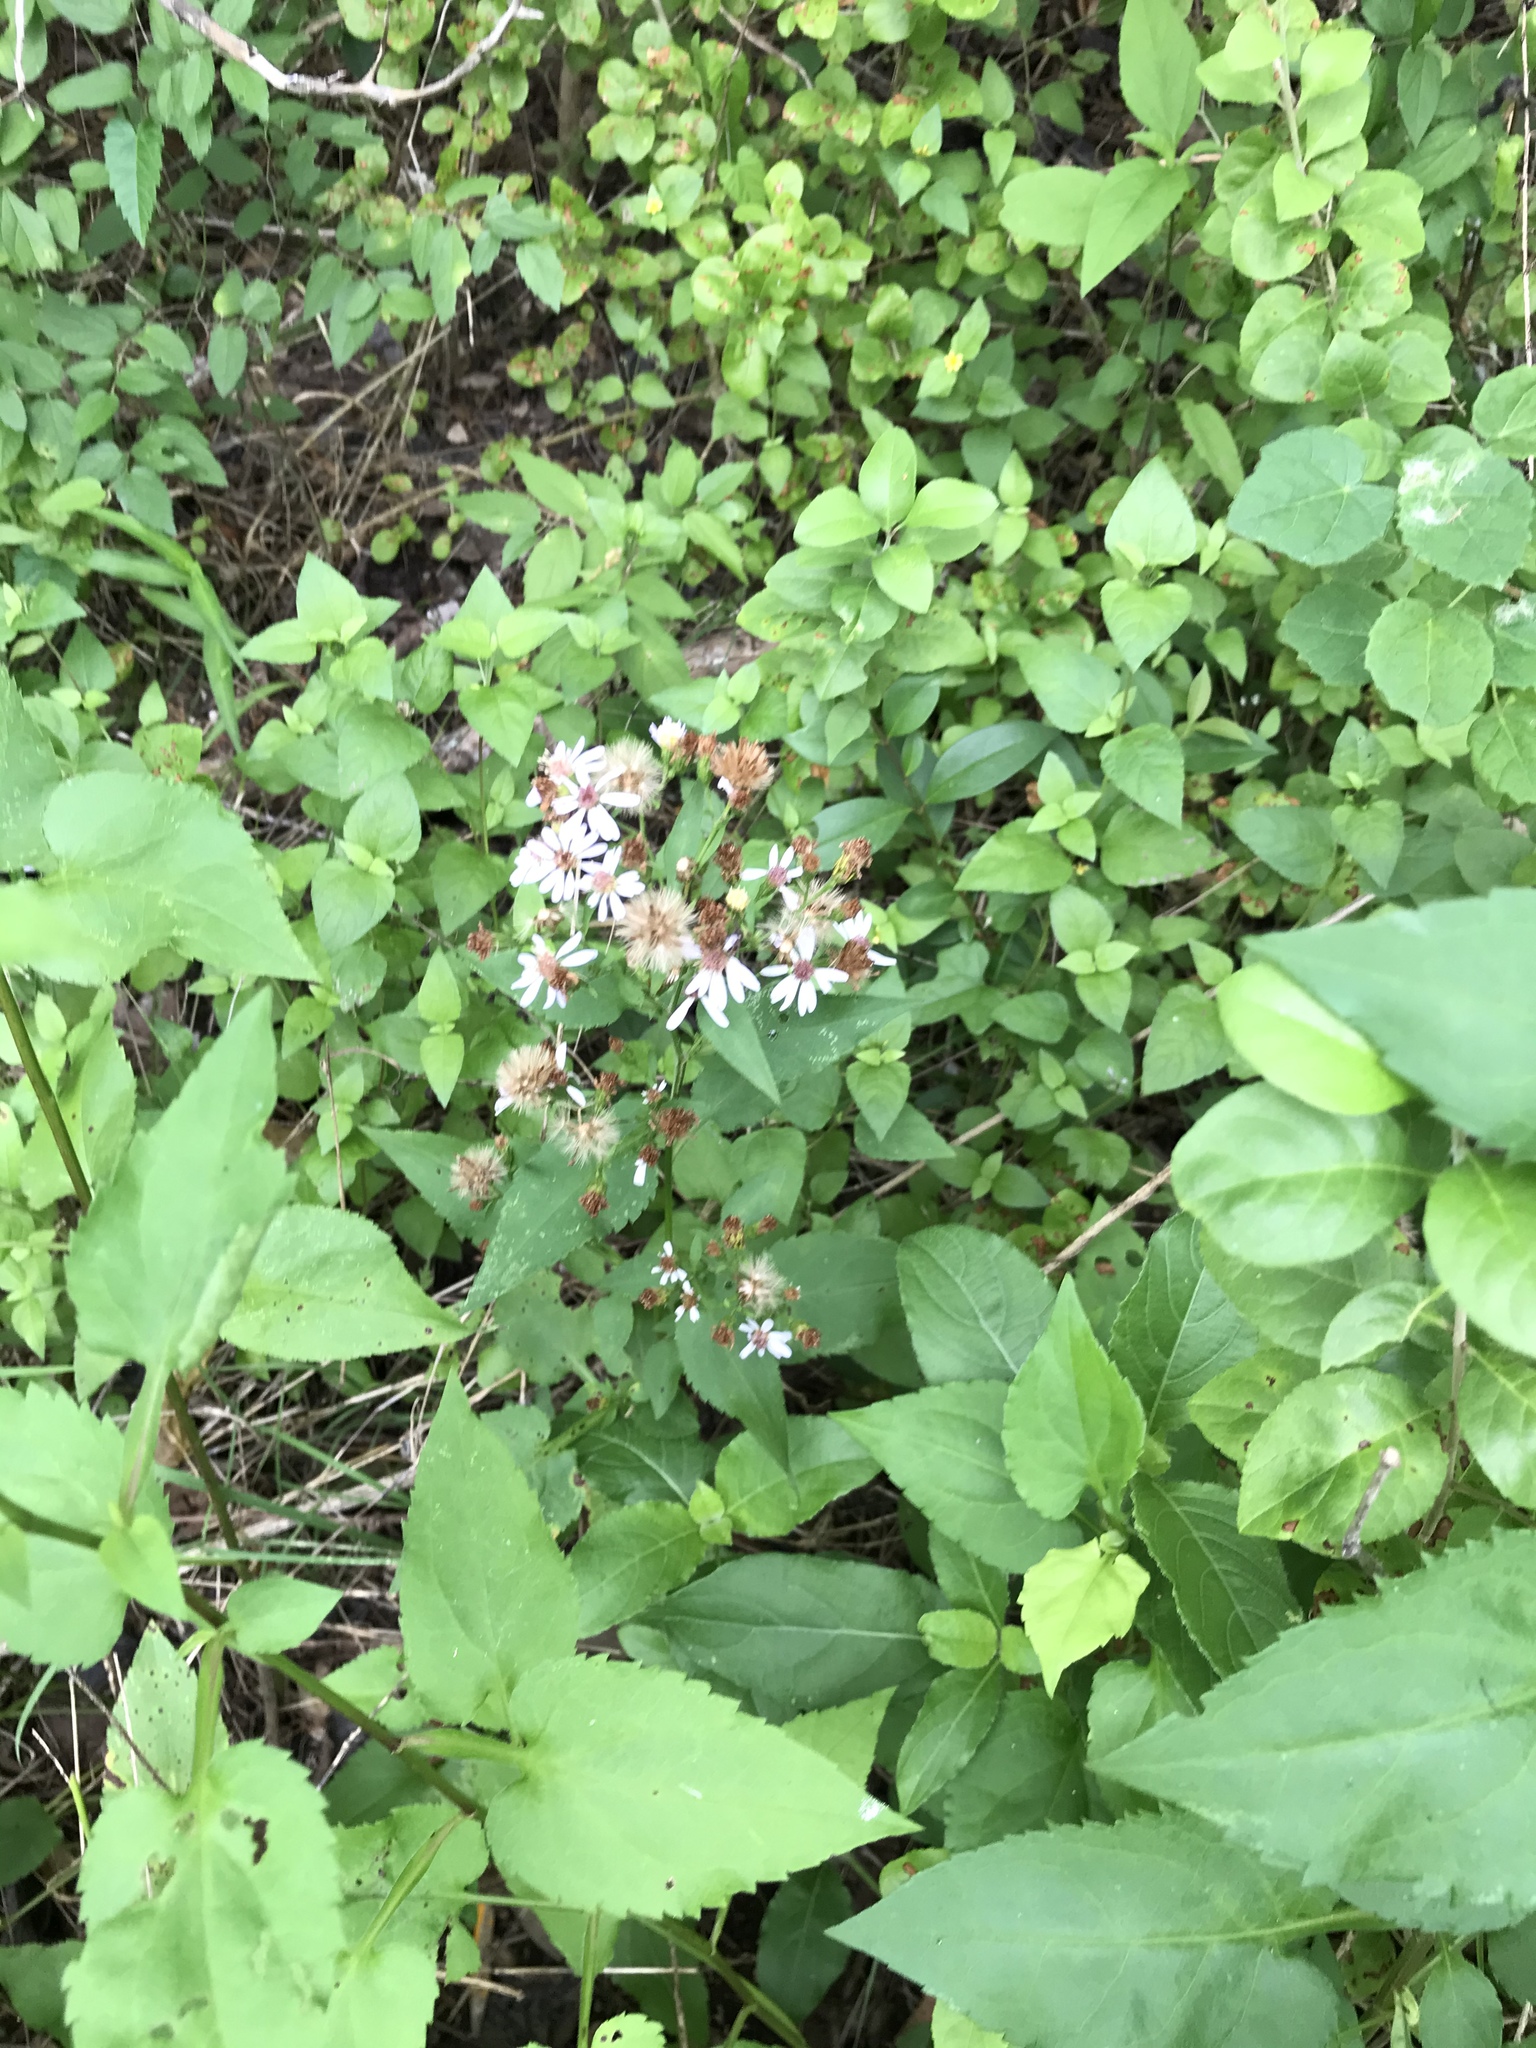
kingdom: Plantae
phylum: Tracheophyta
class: Magnoliopsida
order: Asterales
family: Asteraceae
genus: Symphyotrichum
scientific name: Symphyotrichum drummondii
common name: Drummond's aster
